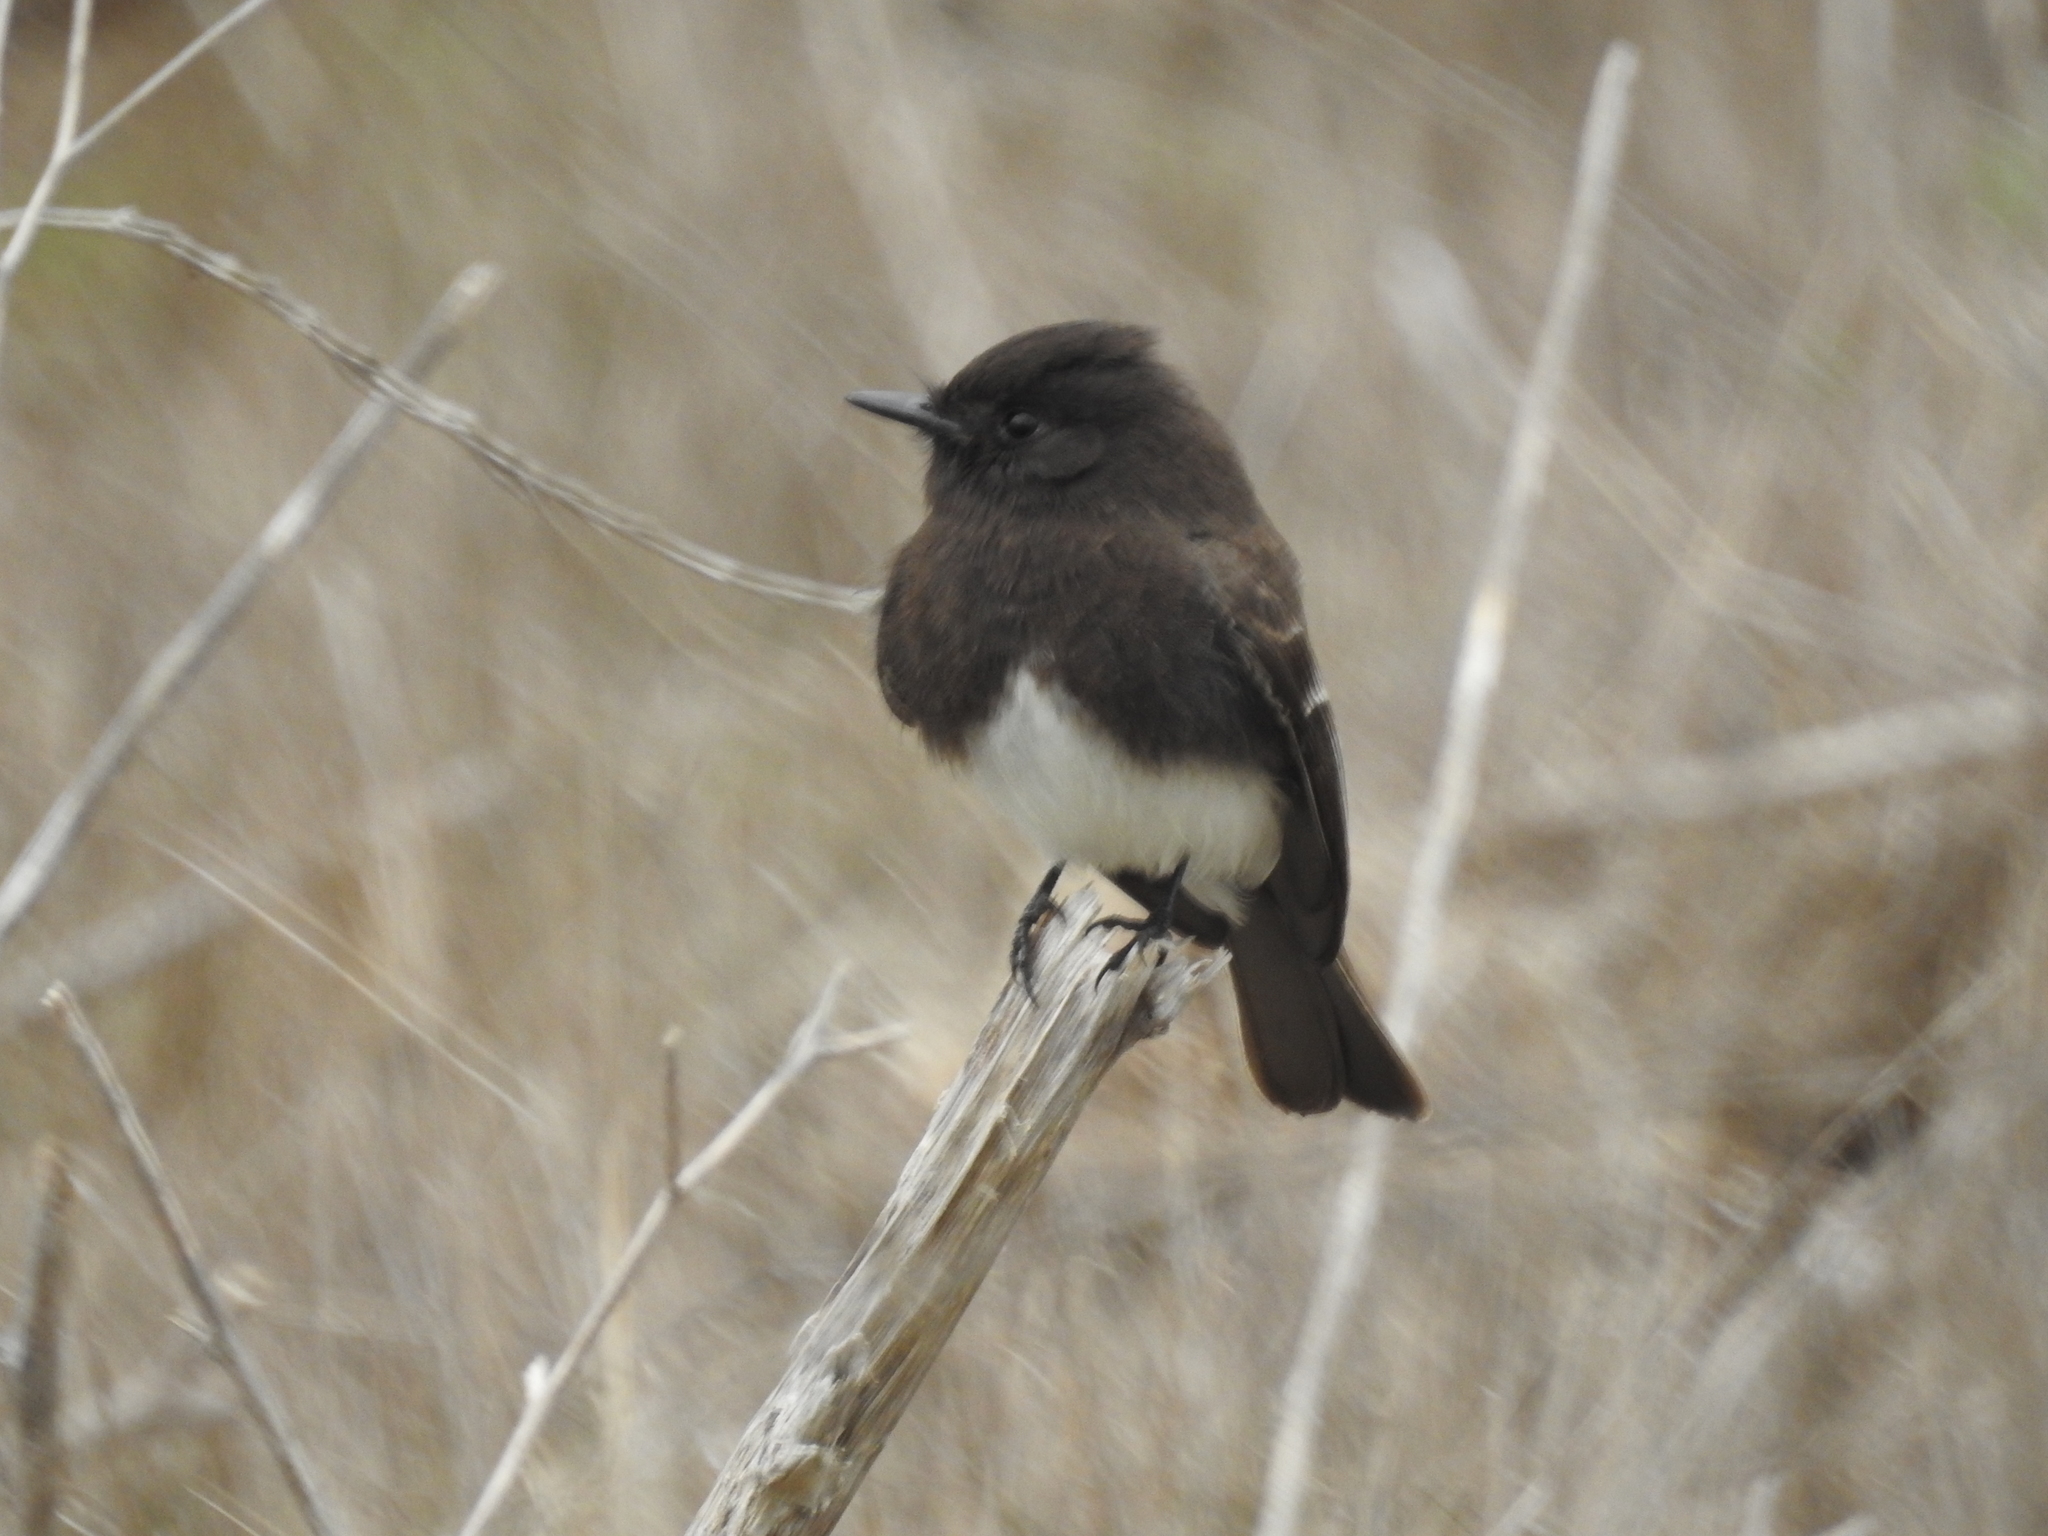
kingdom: Animalia
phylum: Chordata
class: Aves
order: Passeriformes
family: Tyrannidae
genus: Sayornis
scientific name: Sayornis nigricans
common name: Black phoebe
